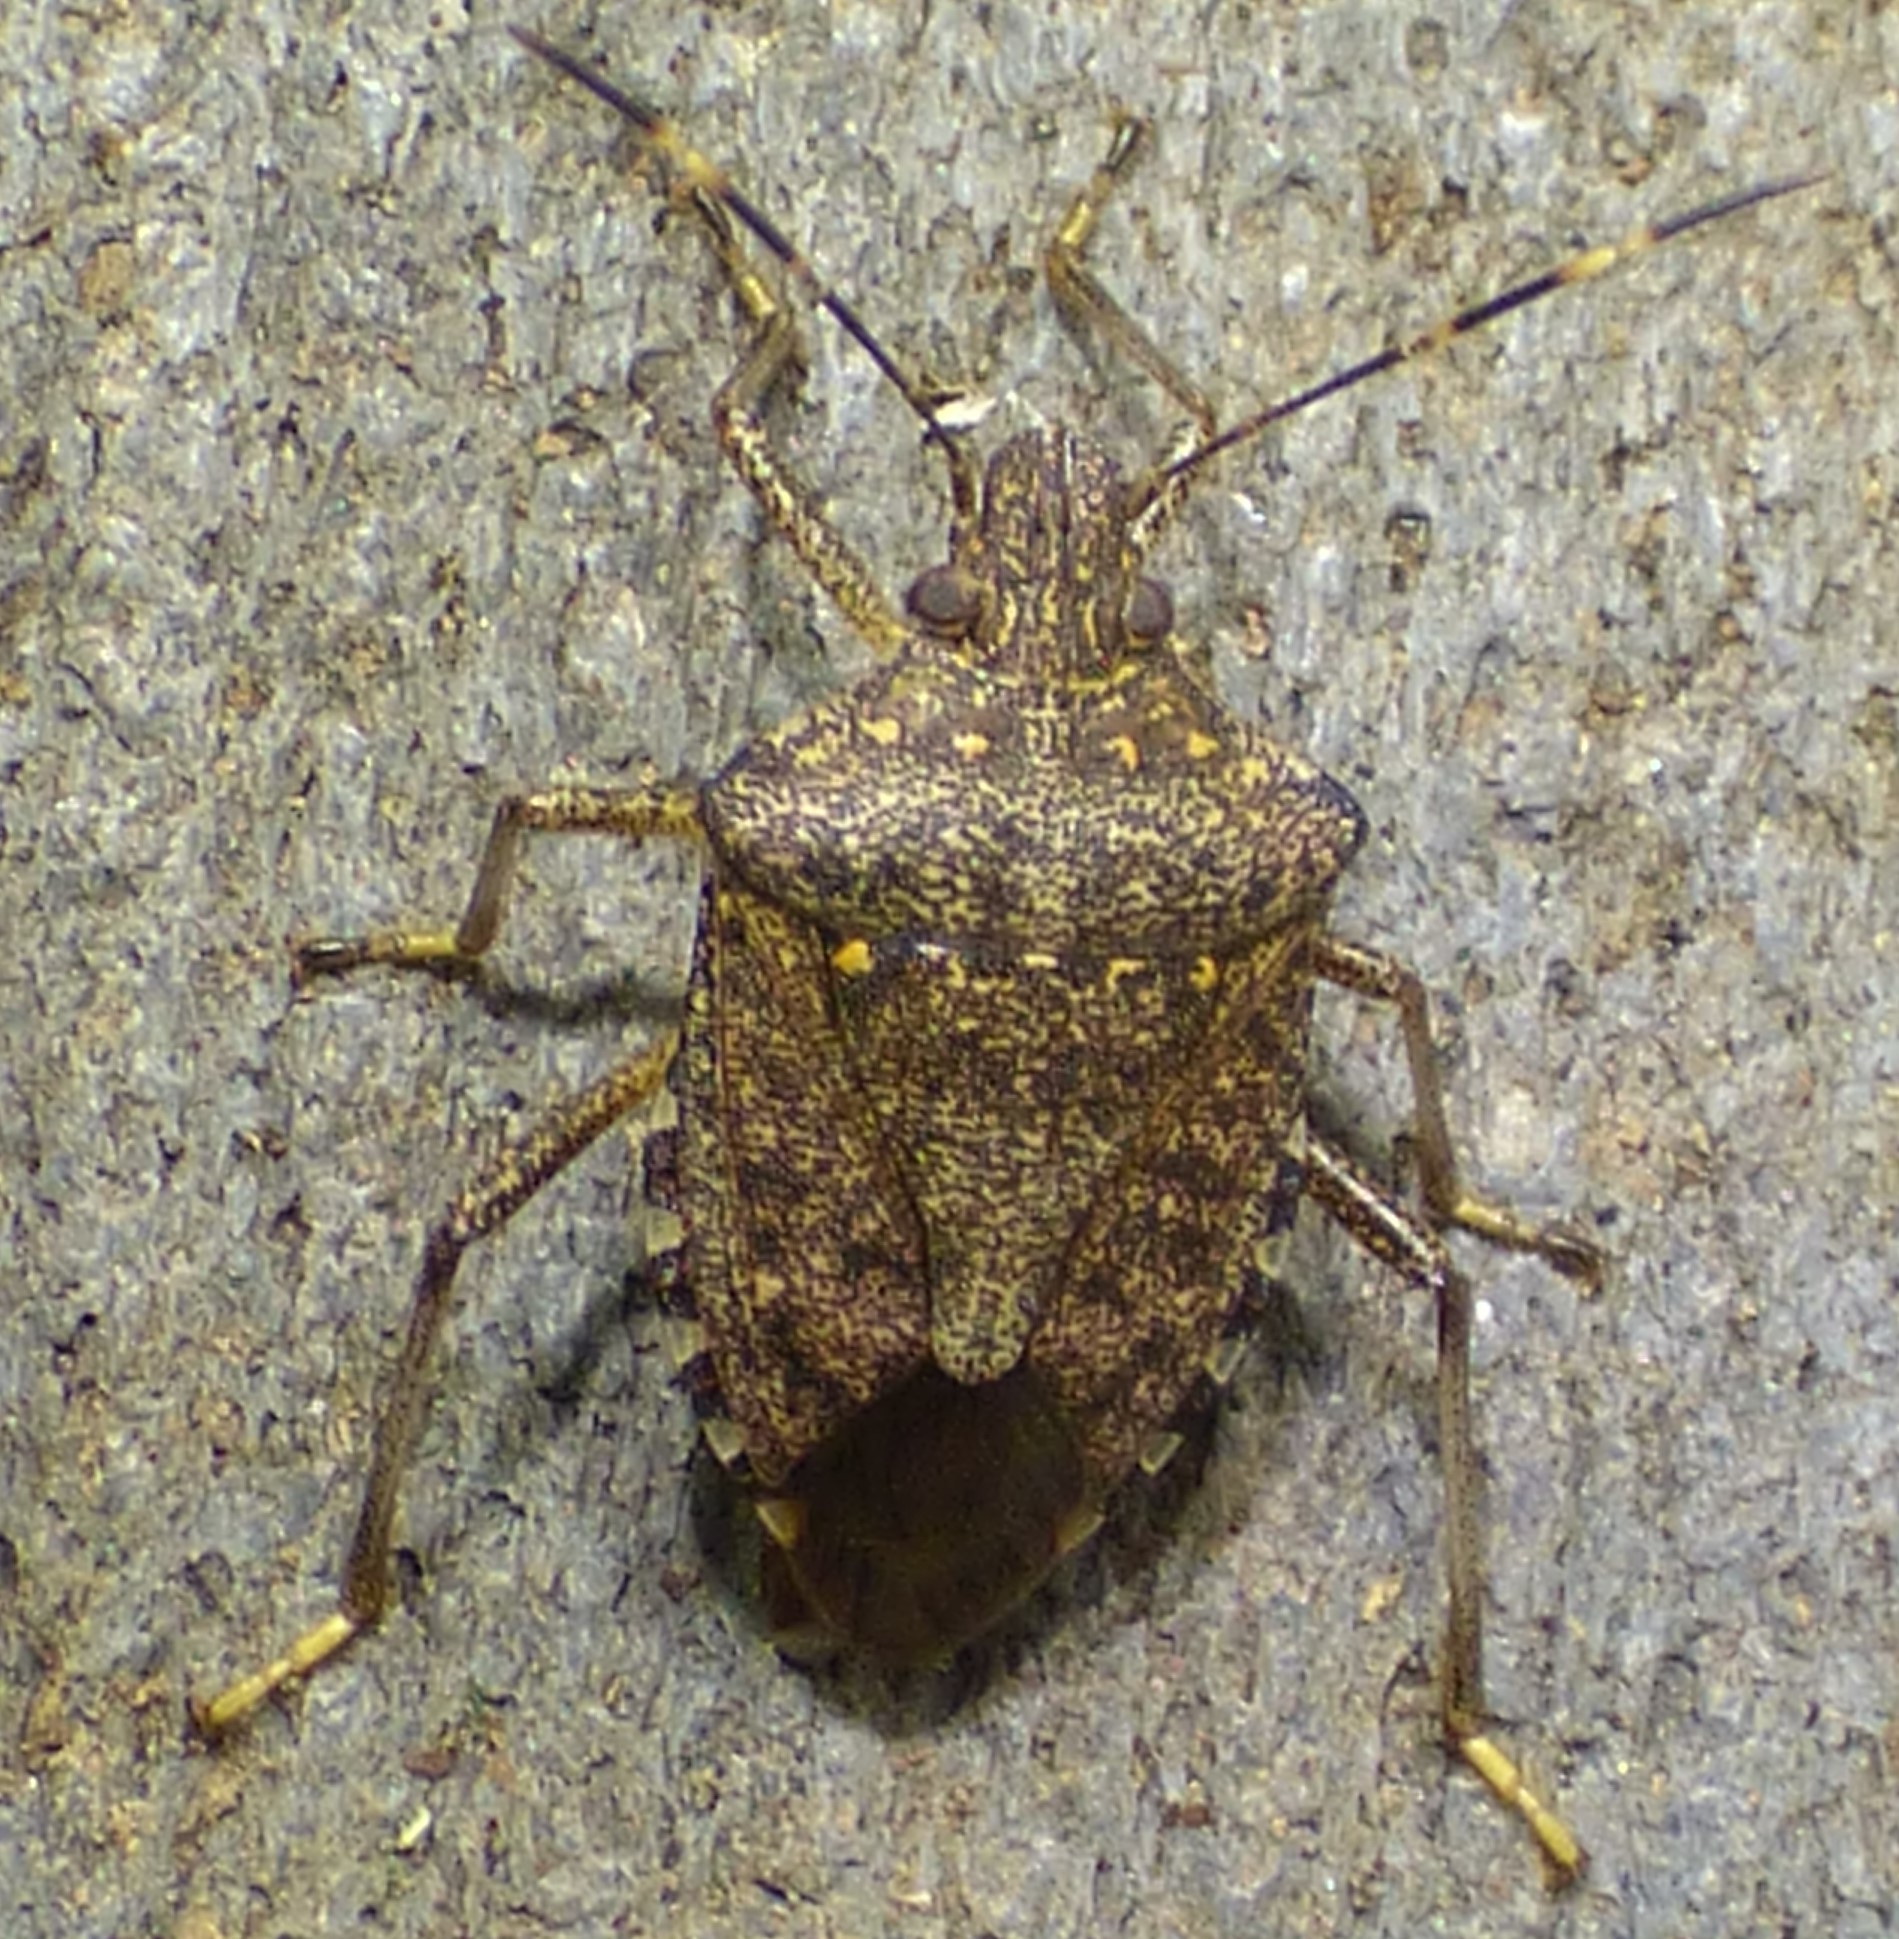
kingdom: Animalia
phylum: Arthropoda
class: Insecta
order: Hemiptera
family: Pentatomidae
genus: Halyomorpha
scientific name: Halyomorpha halys
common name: Brown marmorated stink bug
